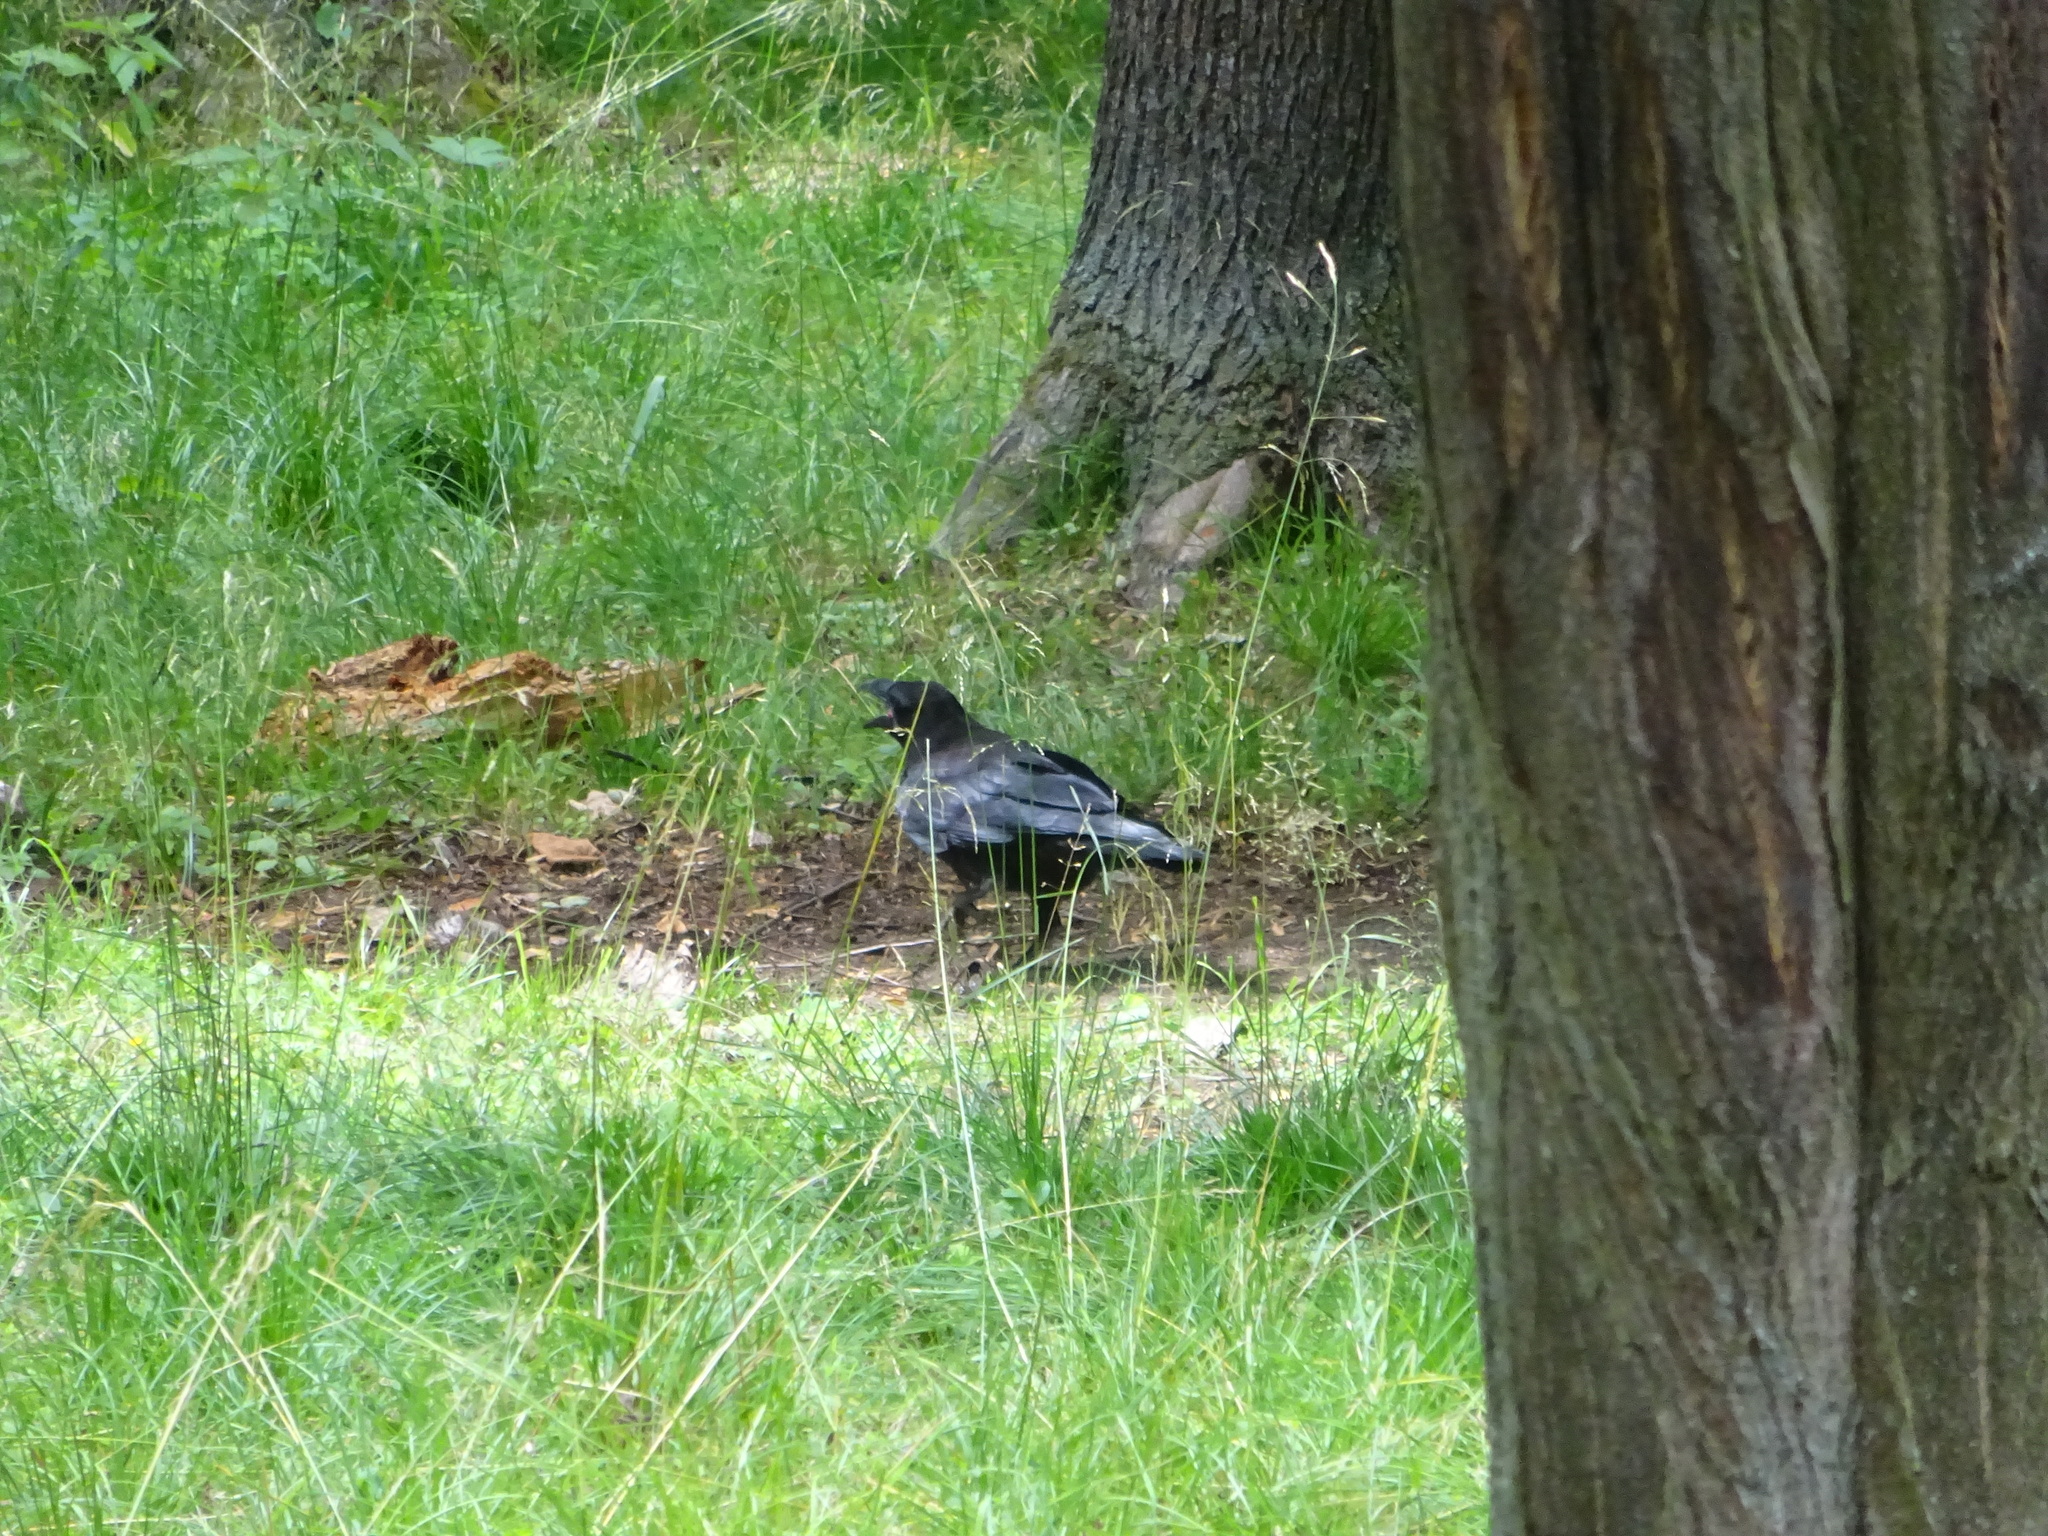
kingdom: Animalia
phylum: Chordata
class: Aves
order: Passeriformes
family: Corvidae
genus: Corvus
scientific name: Corvus corax
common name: Common raven
